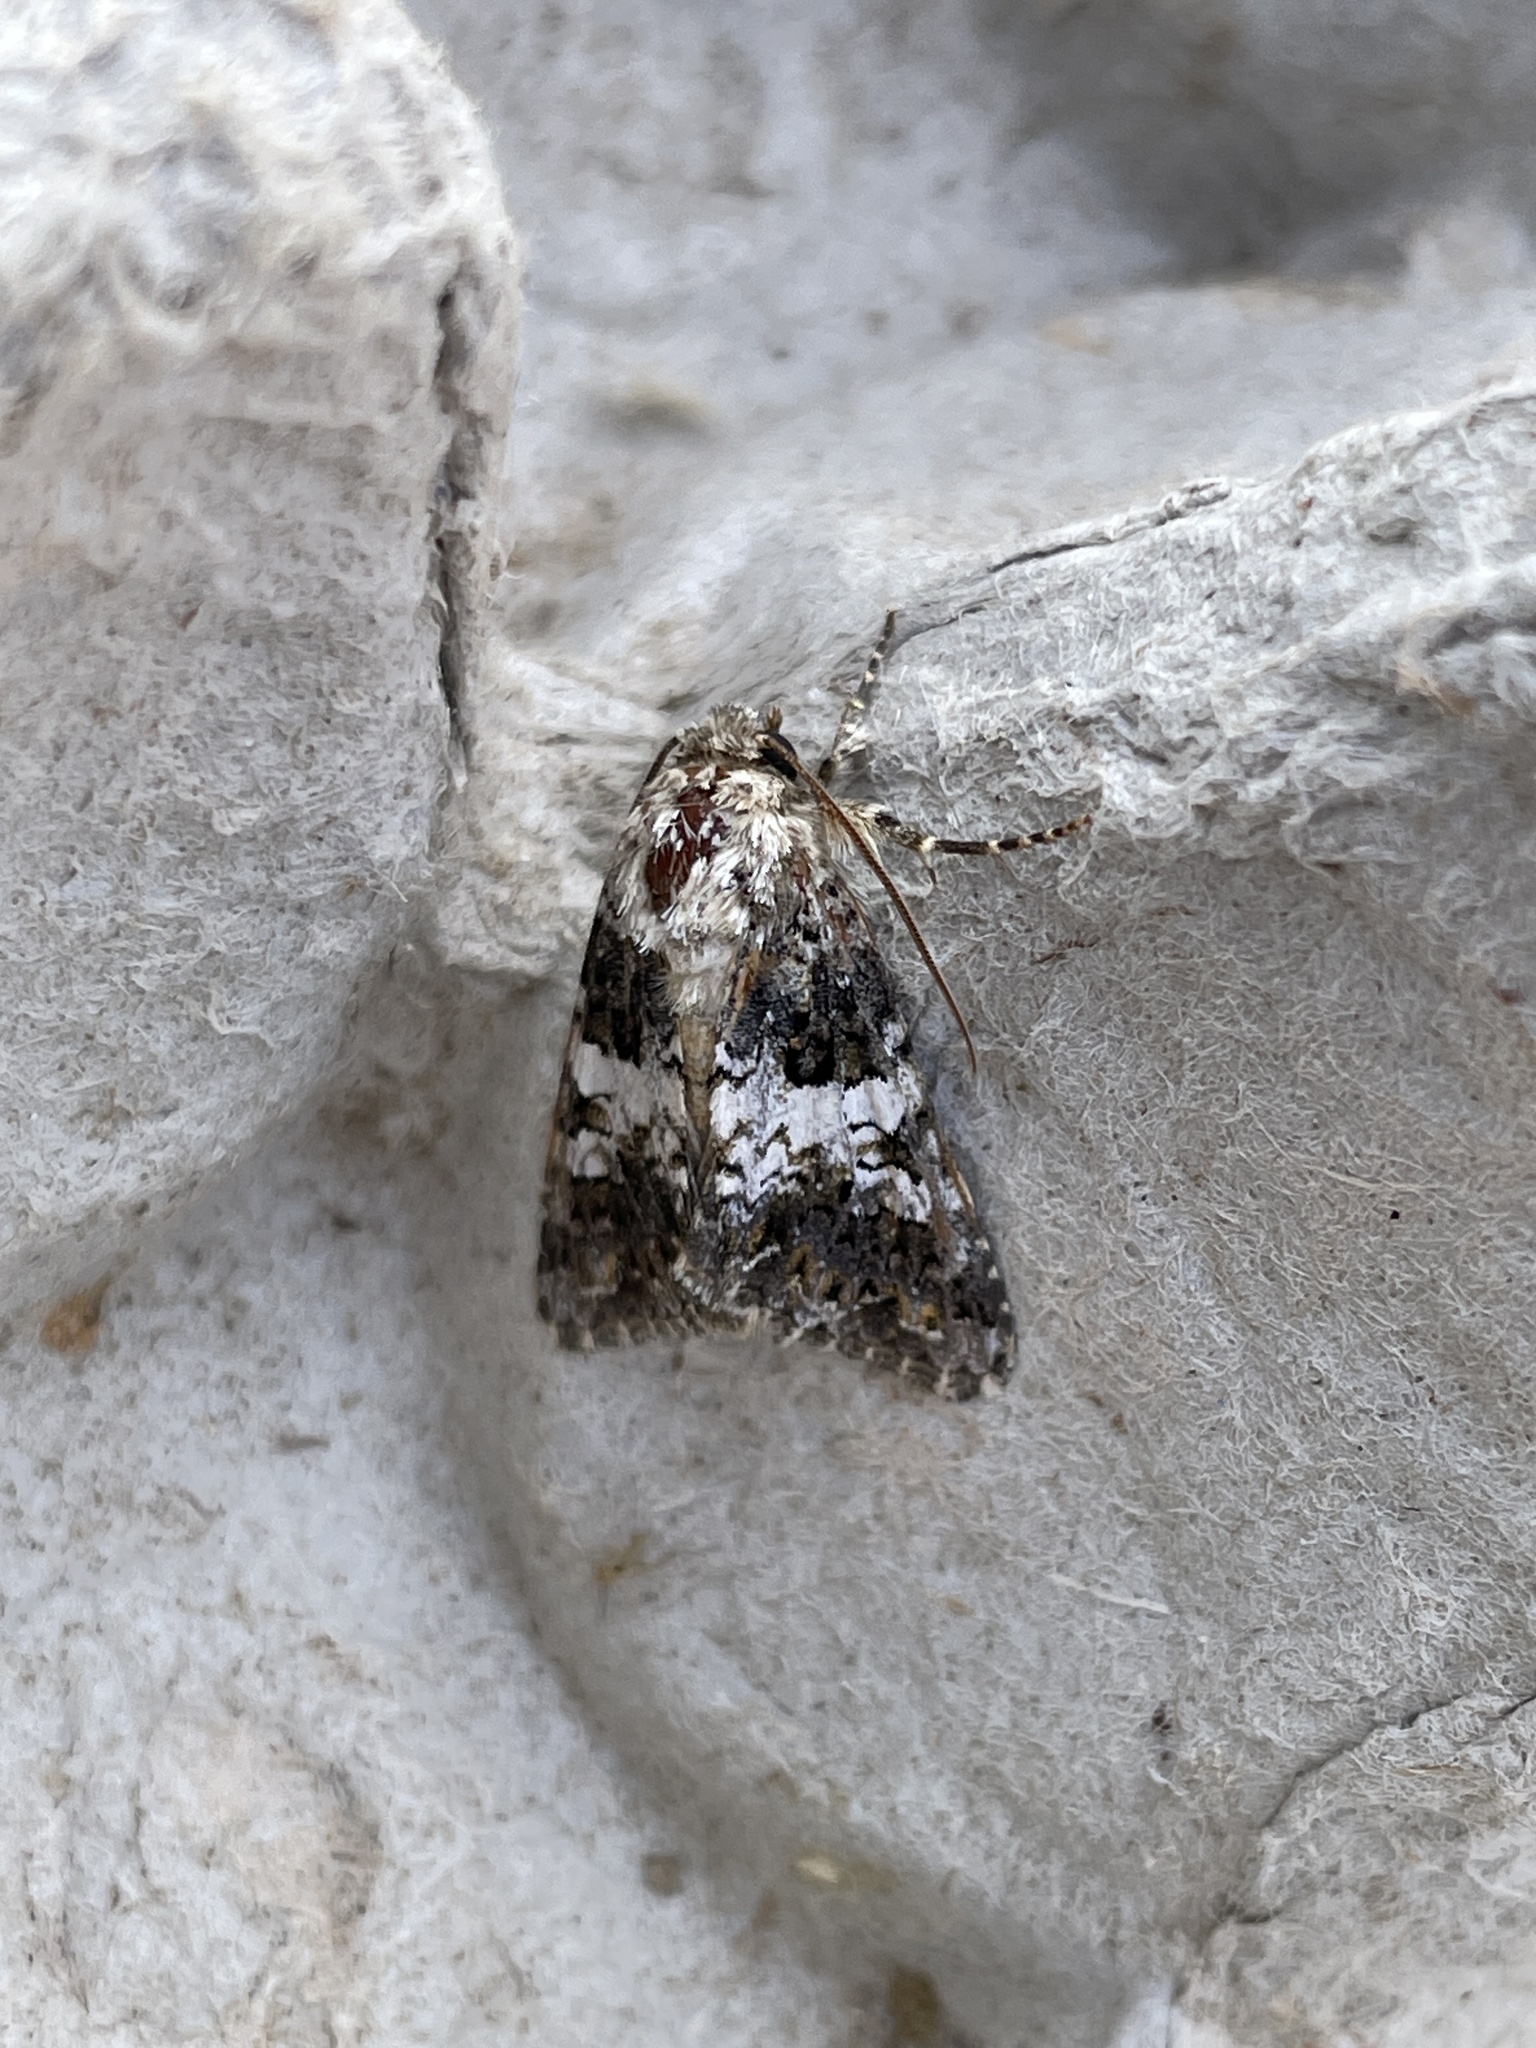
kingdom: Animalia
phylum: Arthropoda
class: Insecta
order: Lepidoptera
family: Noctuidae
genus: Hadena
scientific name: Hadena compta
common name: Varied coronet
